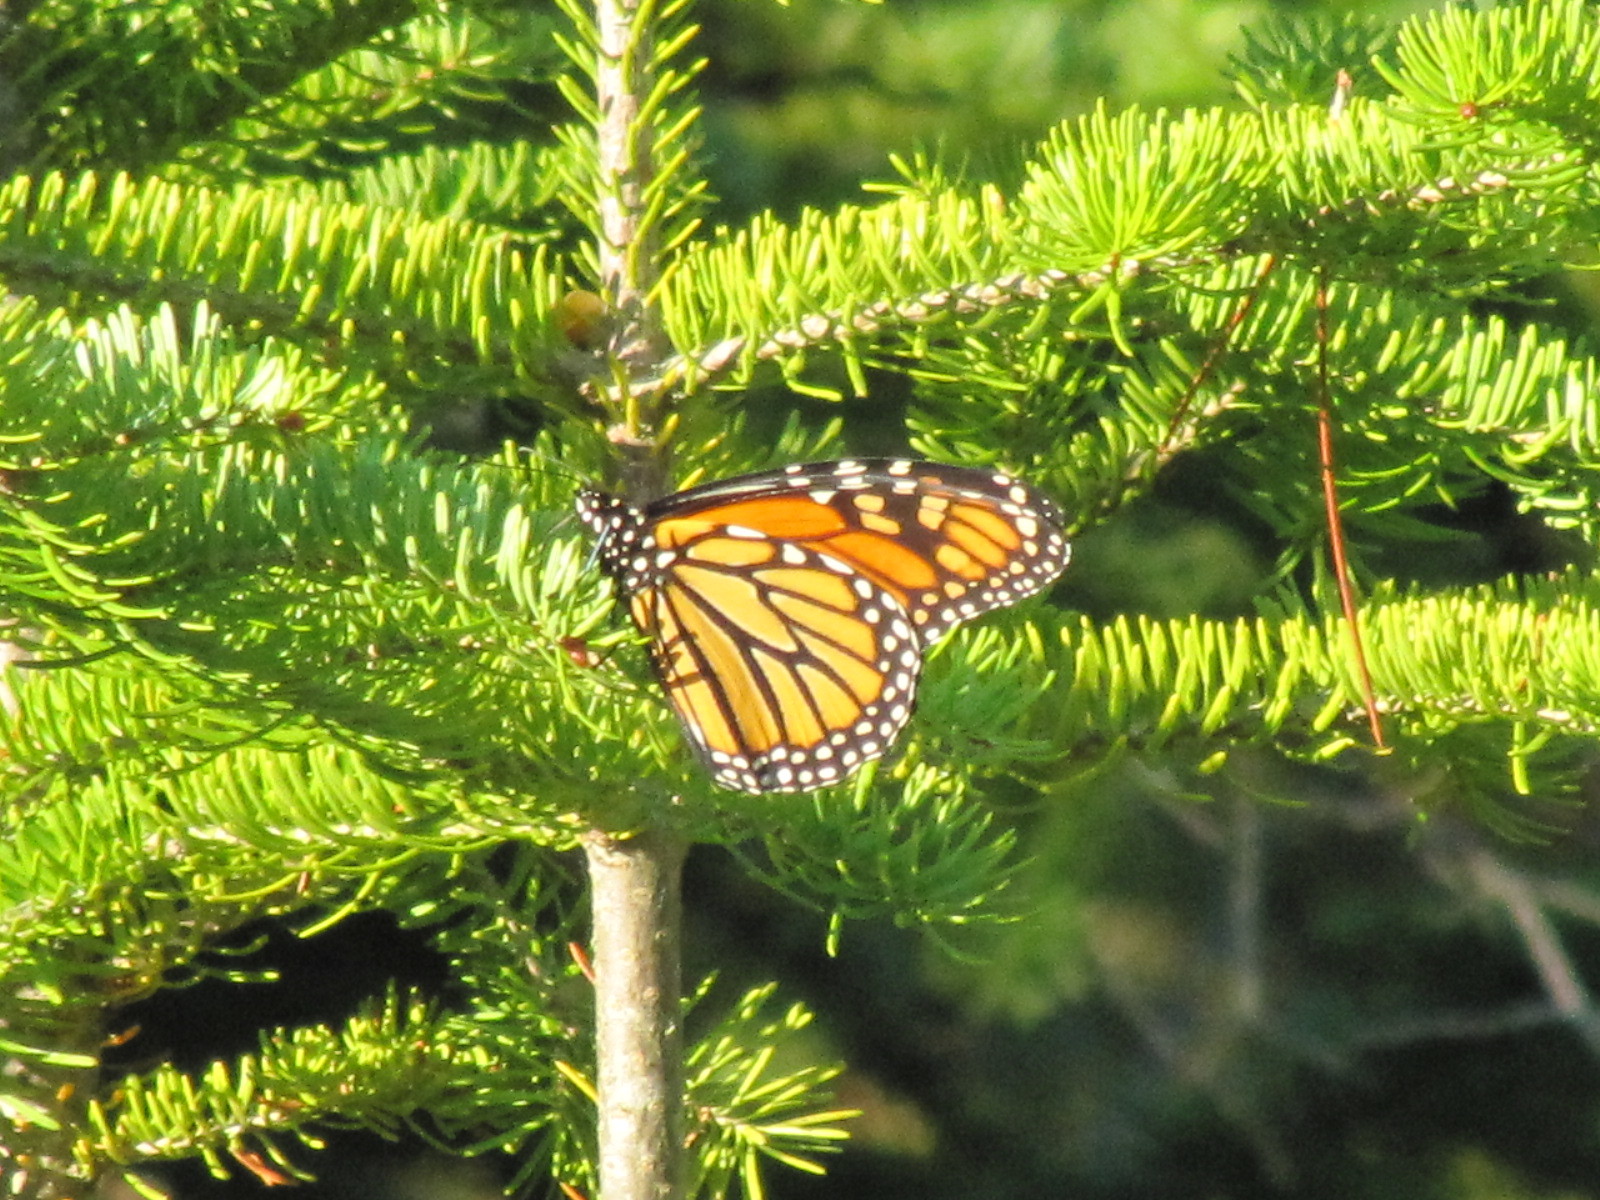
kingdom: Animalia
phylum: Arthropoda
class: Insecta
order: Lepidoptera
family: Nymphalidae
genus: Danaus
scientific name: Danaus plexippus
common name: Monarch
